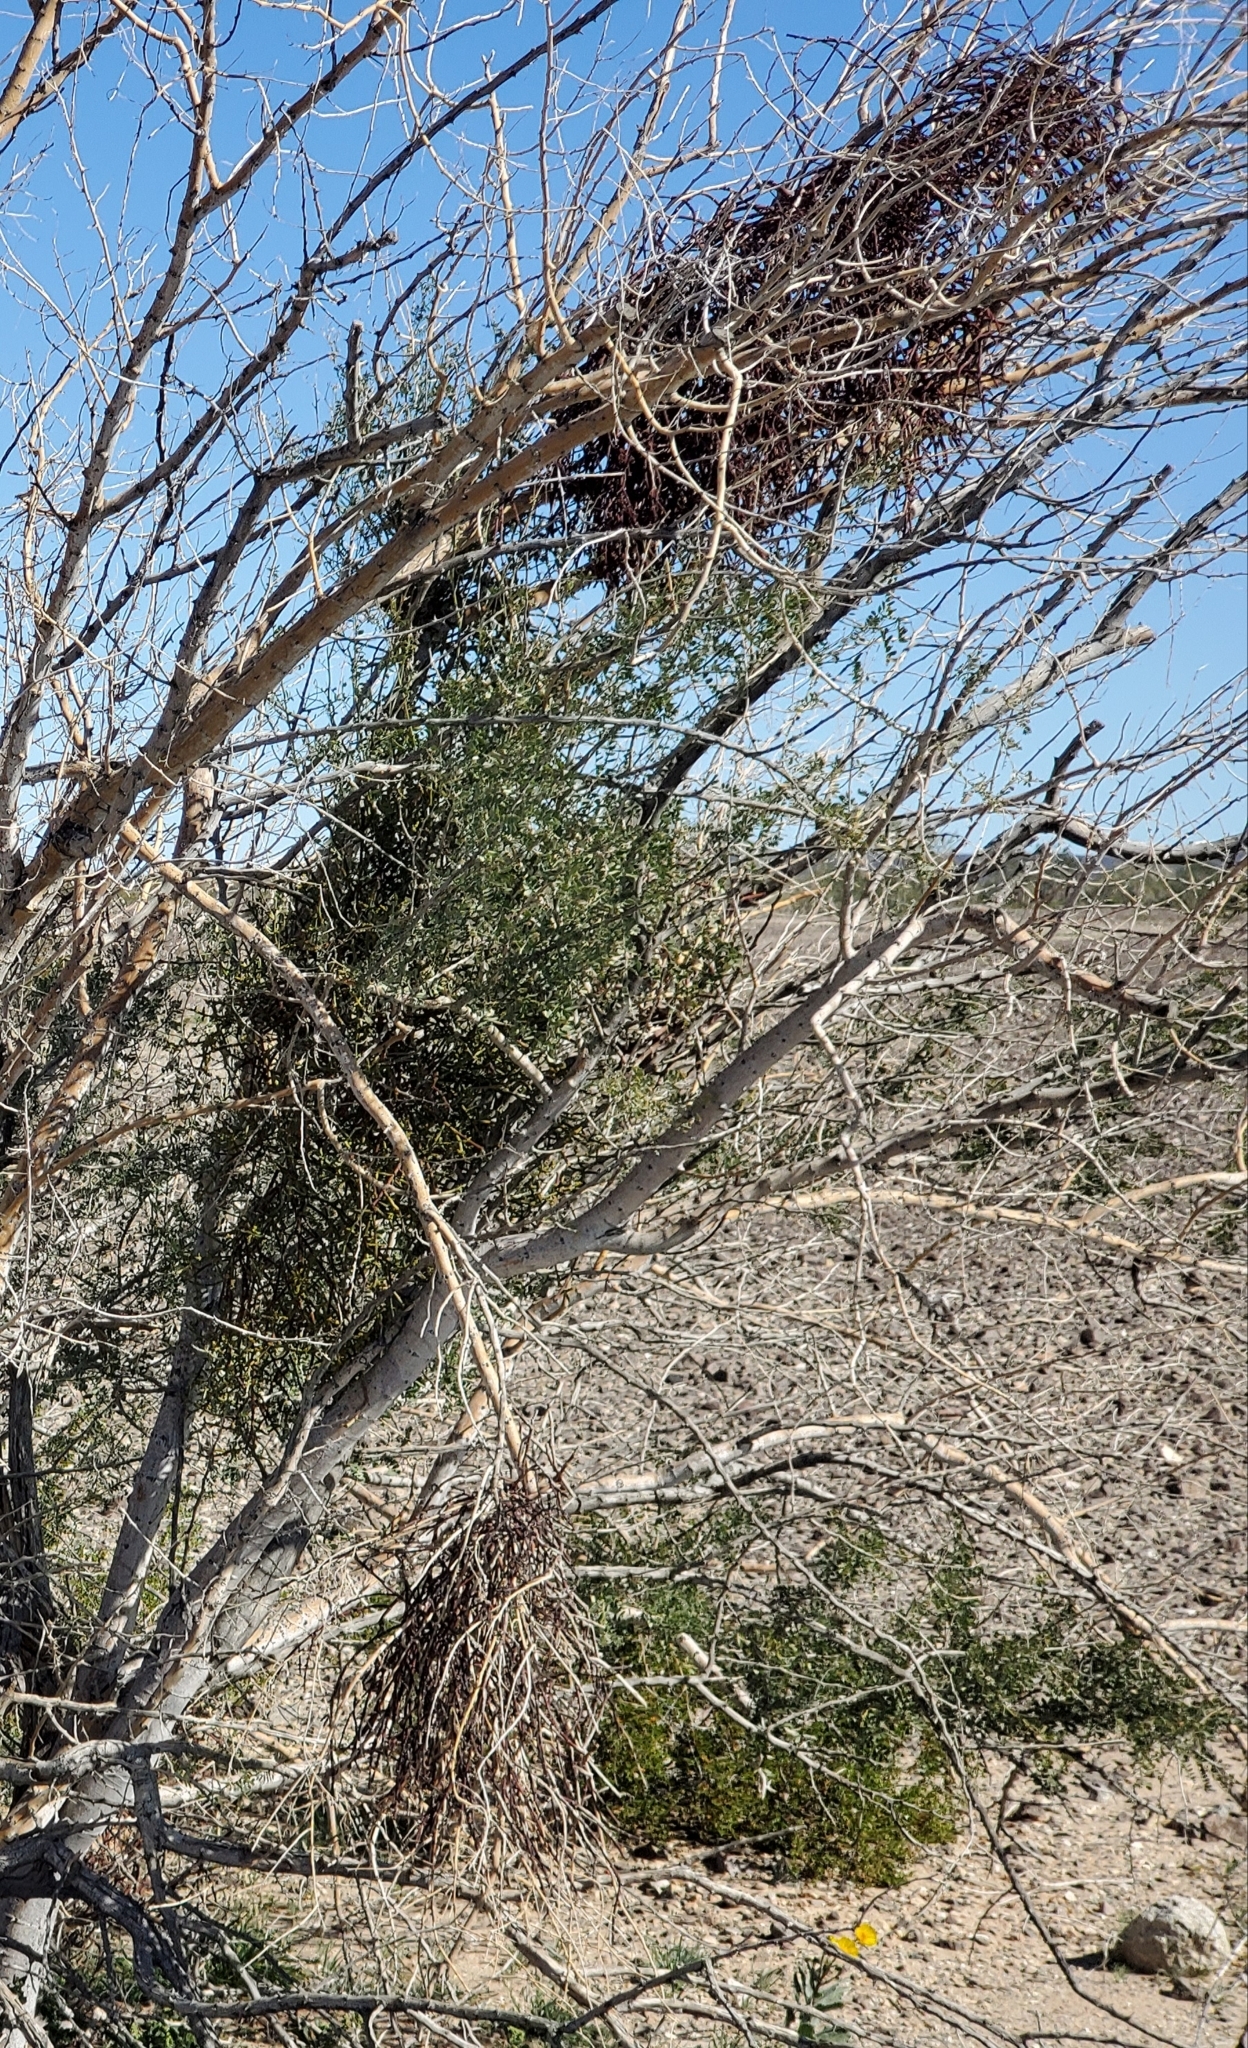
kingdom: Plantae
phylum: Tracheophyta
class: Magnoliopsida
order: Santalales
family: Viscaceae
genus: Phoradendron
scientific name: Phoradendron californicum
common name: Acacia mistletoe
